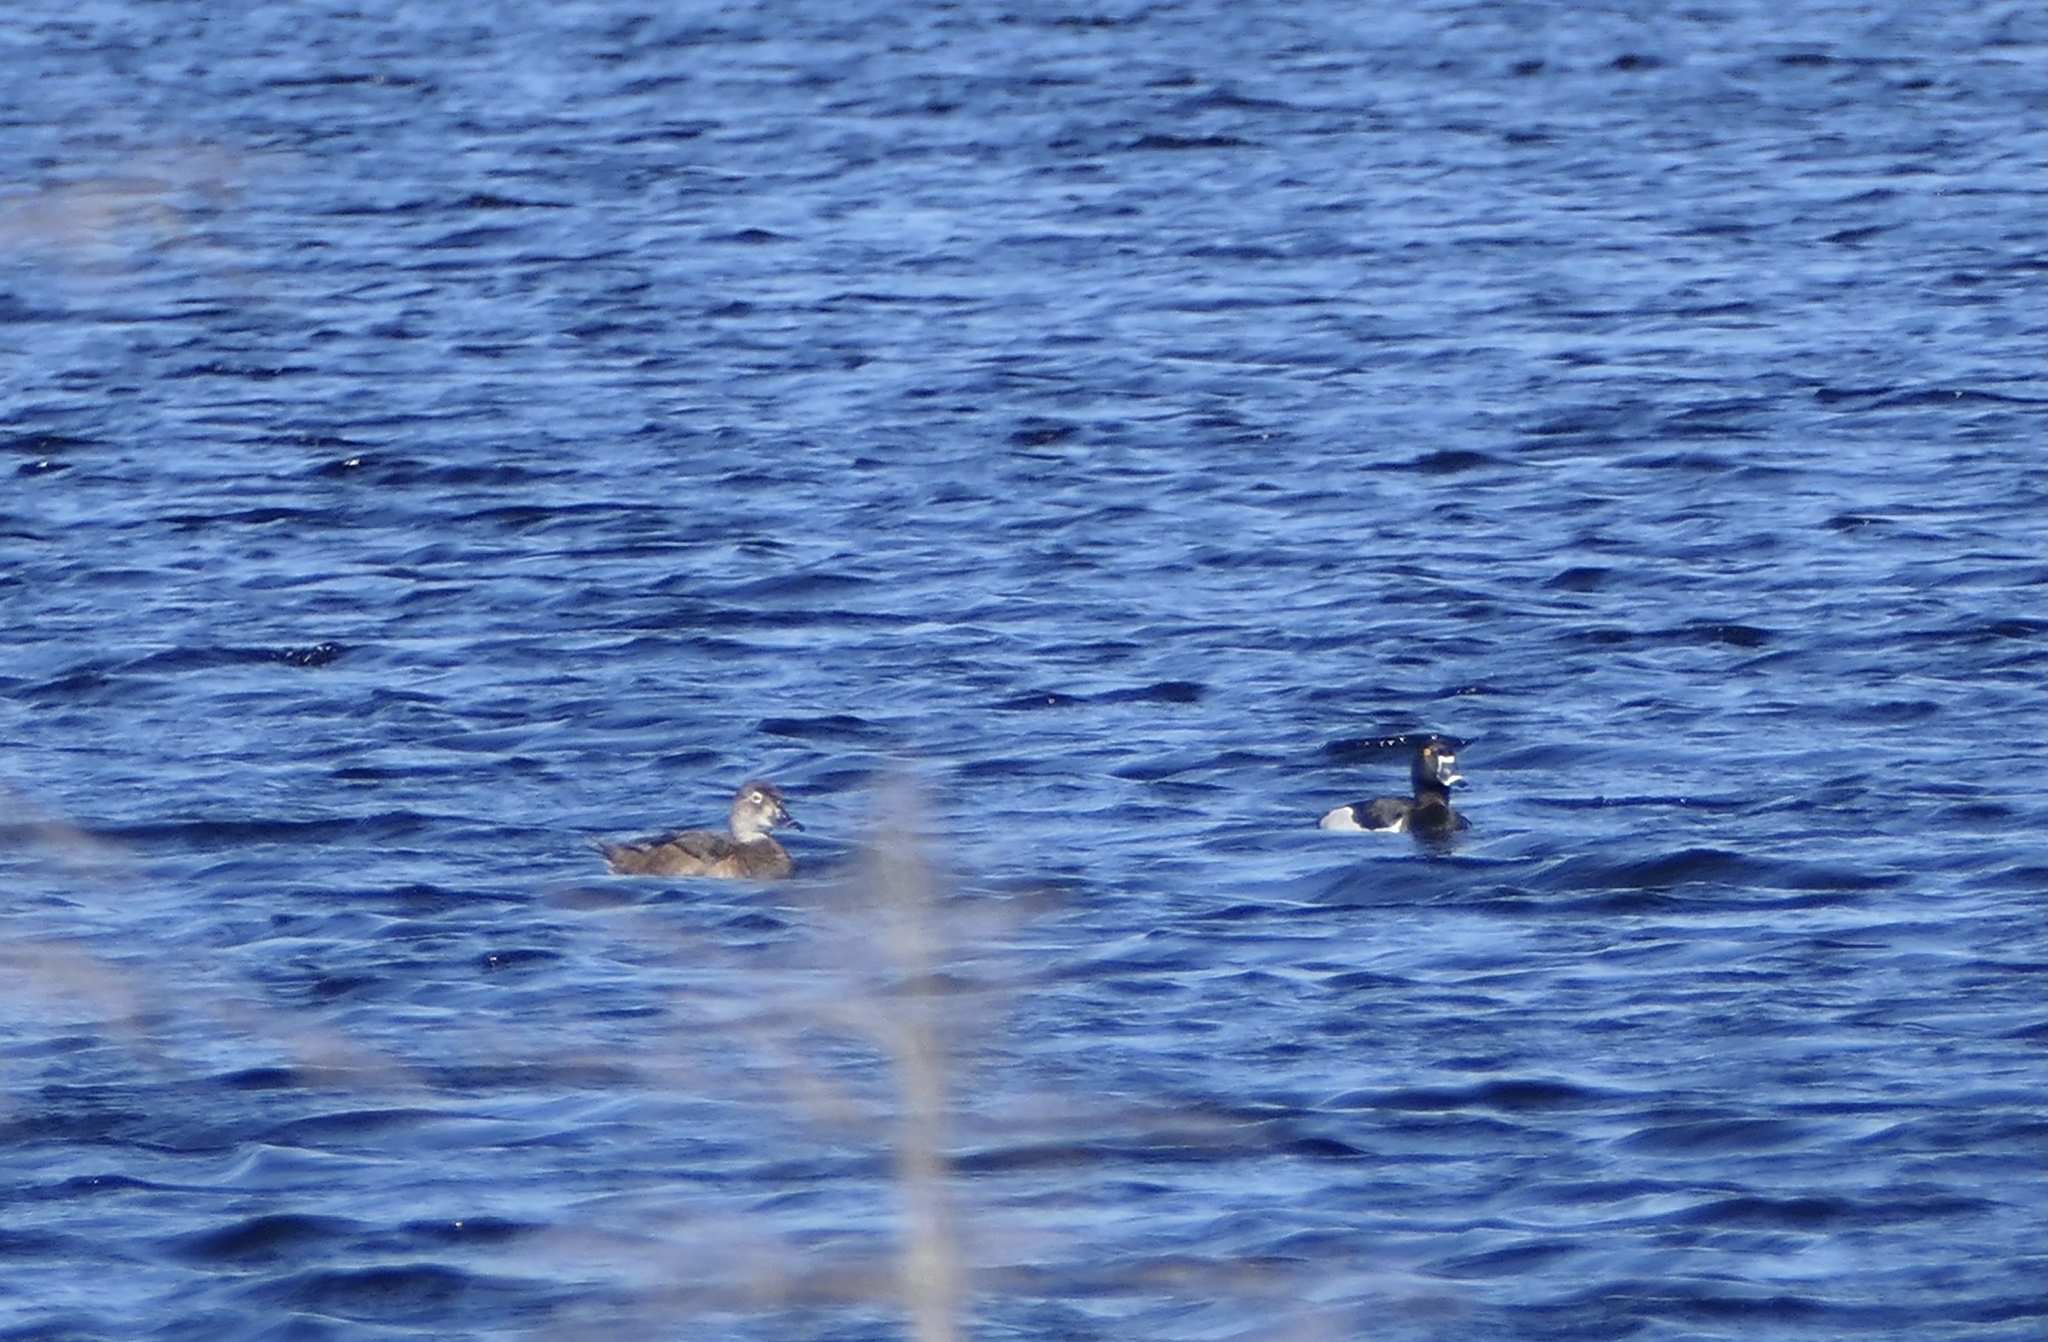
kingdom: Animalia
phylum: Chordata
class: Aves
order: Anseriformes
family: Anatidae
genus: Aythya
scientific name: Aythya collaris
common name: Ring-necked duck
